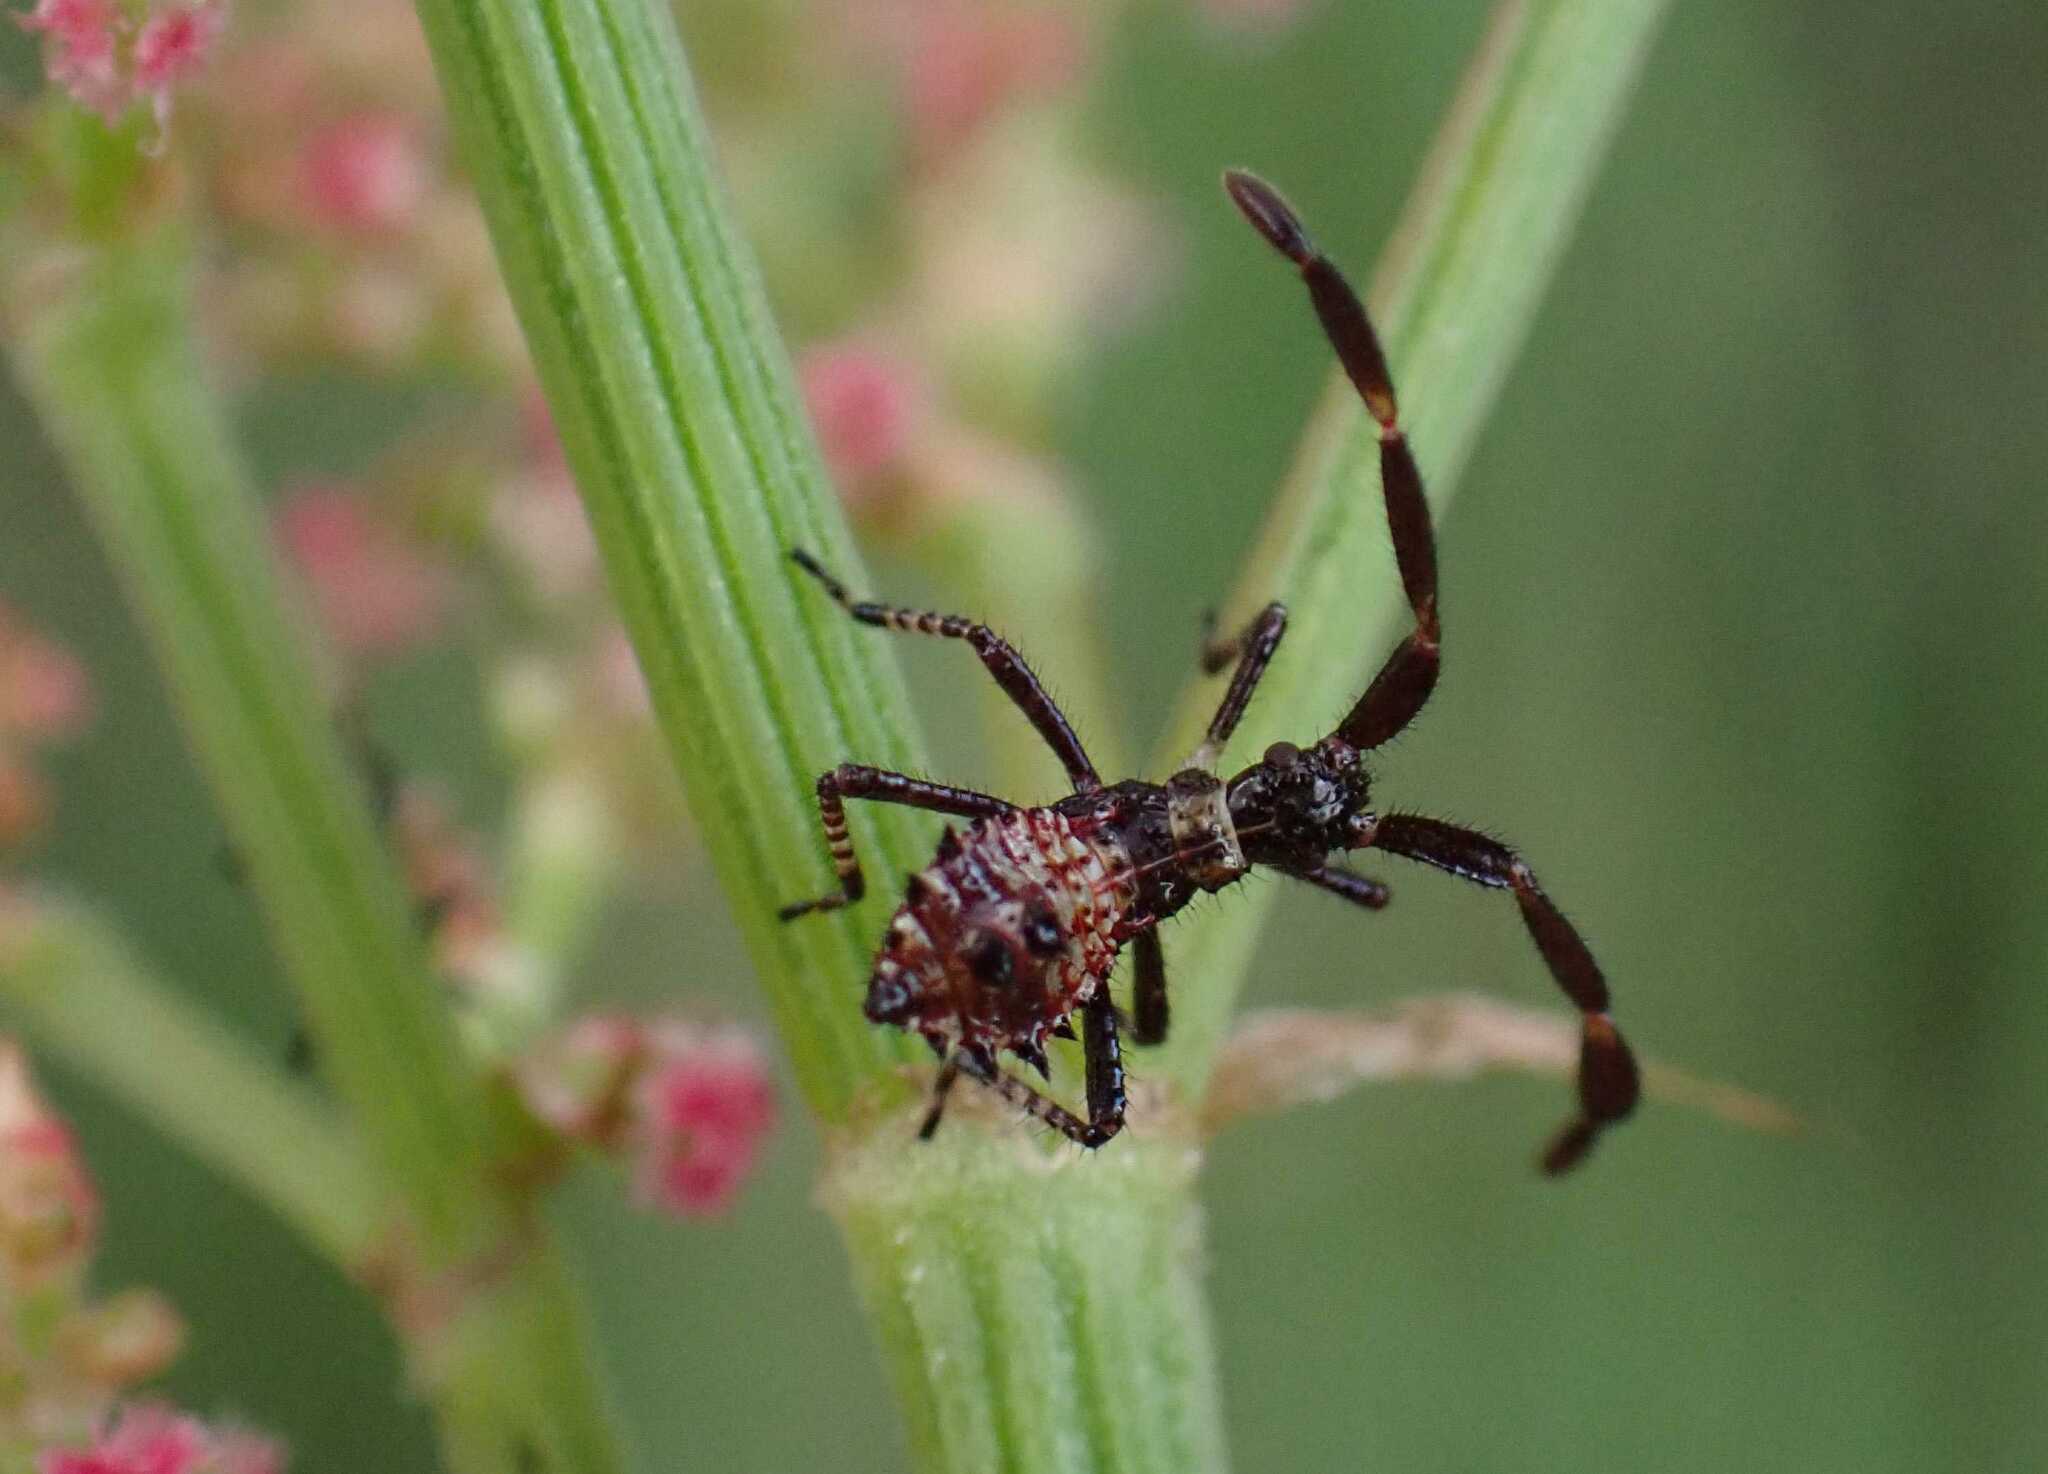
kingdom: Animalia
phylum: Arthropoda
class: Insecta
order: Hemiptera
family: Coreidae
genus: Coreus
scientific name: Coreus marginatus
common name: Dock bug
